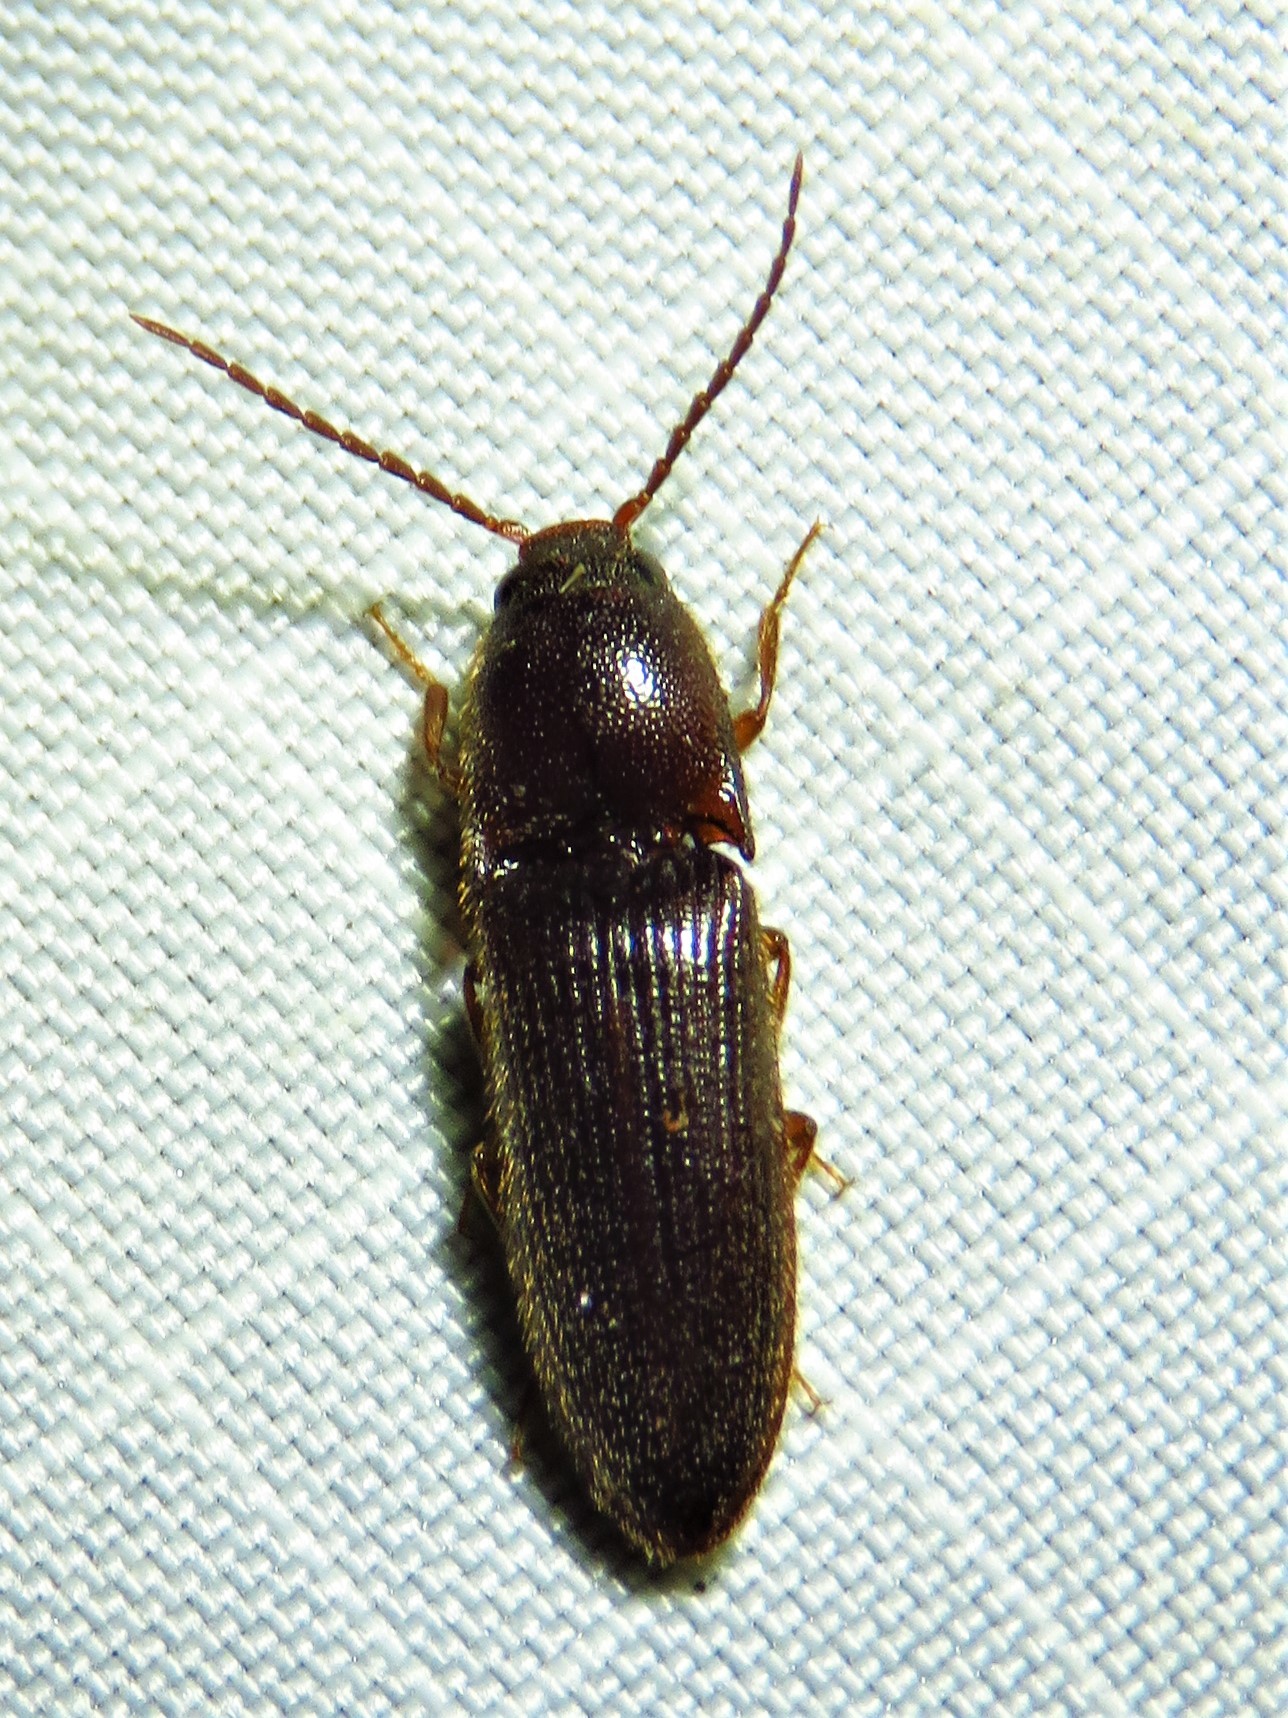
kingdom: Animalia
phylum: Arthropoda
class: Insecta
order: Coleoptera
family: Elateridae
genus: Dipropus
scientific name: Dipropus
